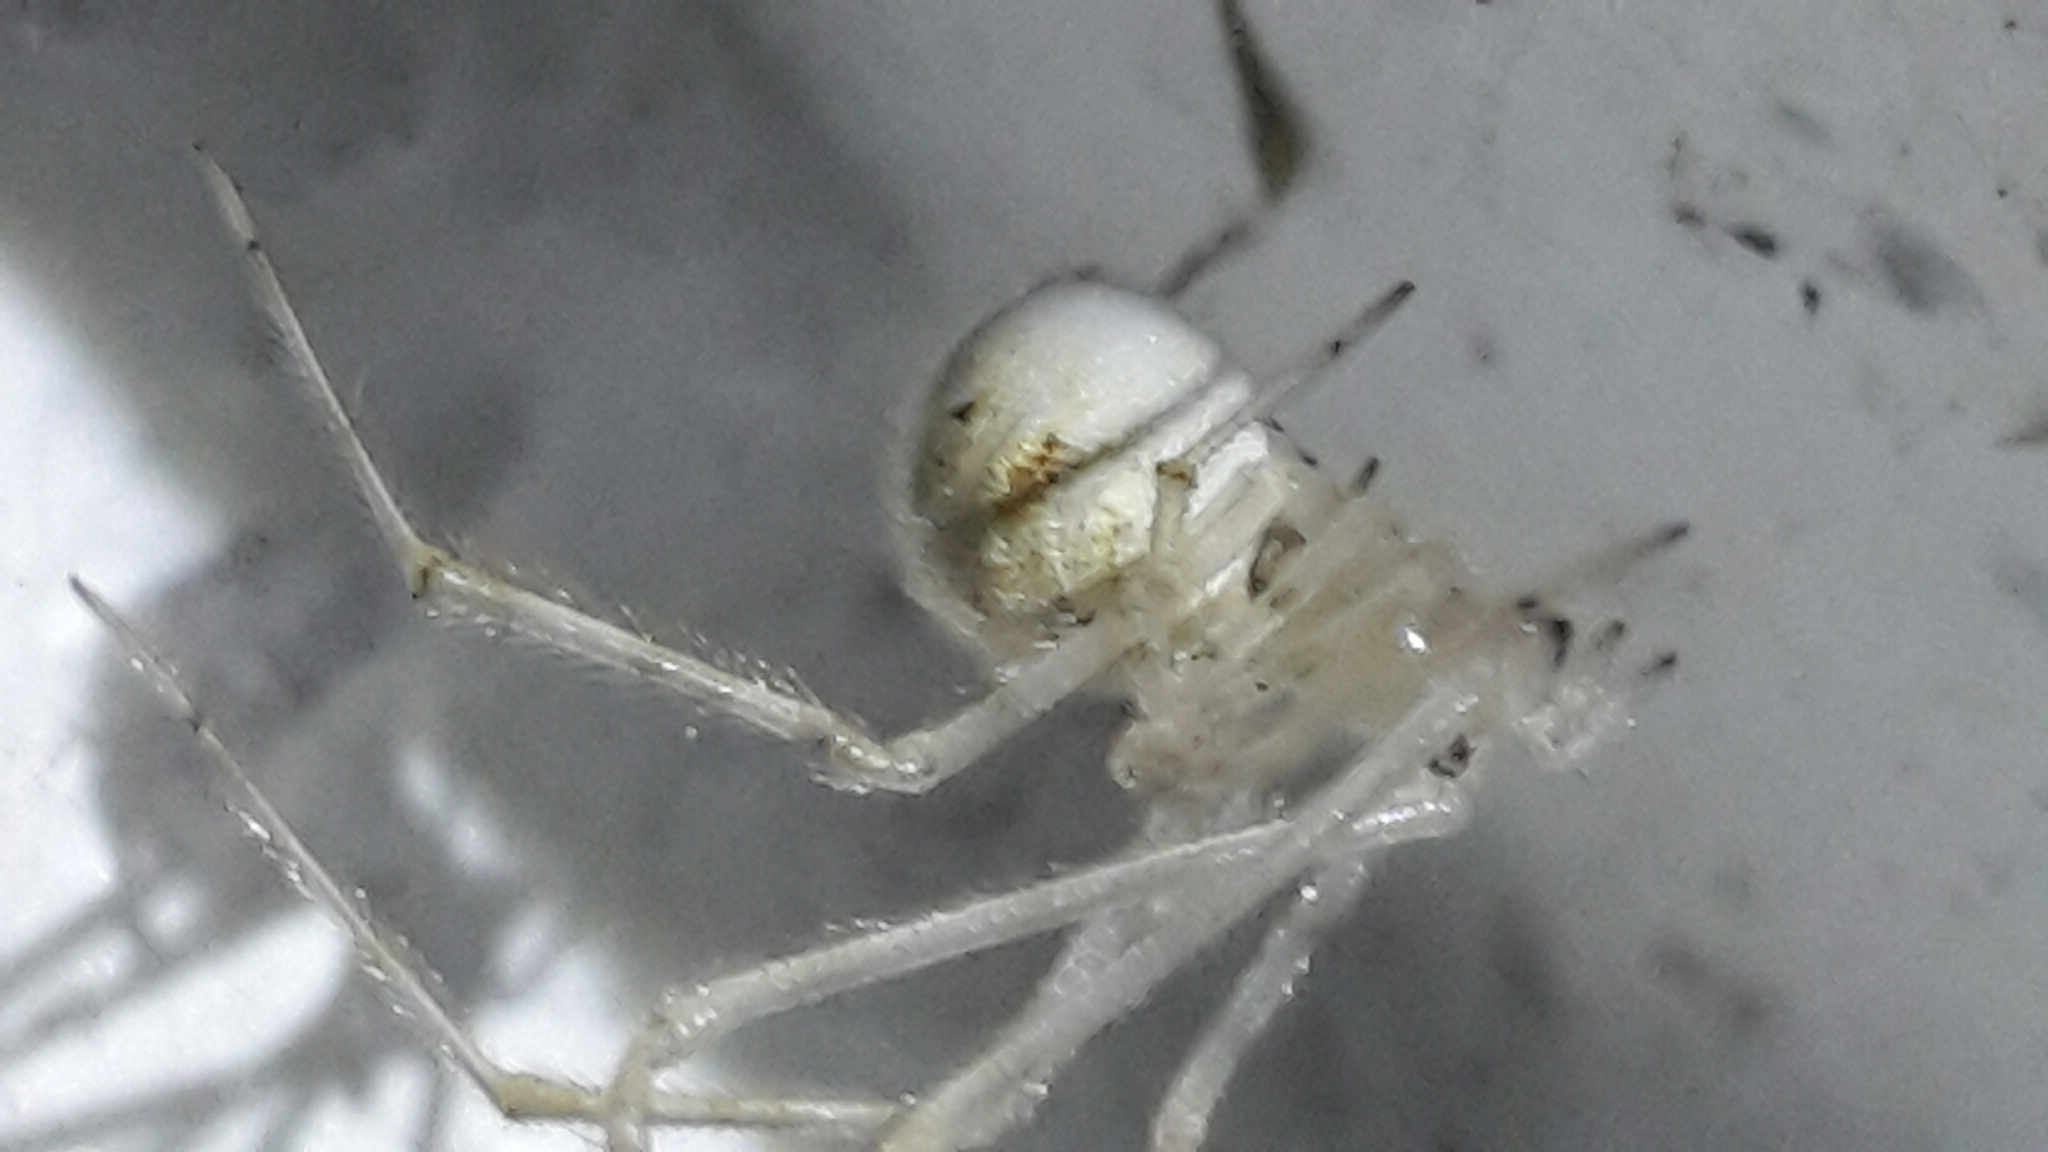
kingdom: Animalia
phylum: Arthropoda
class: Arachnida
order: Araneae
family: Theridiidae
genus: Cryptachaea
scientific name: Cryptachaea gigantipes
